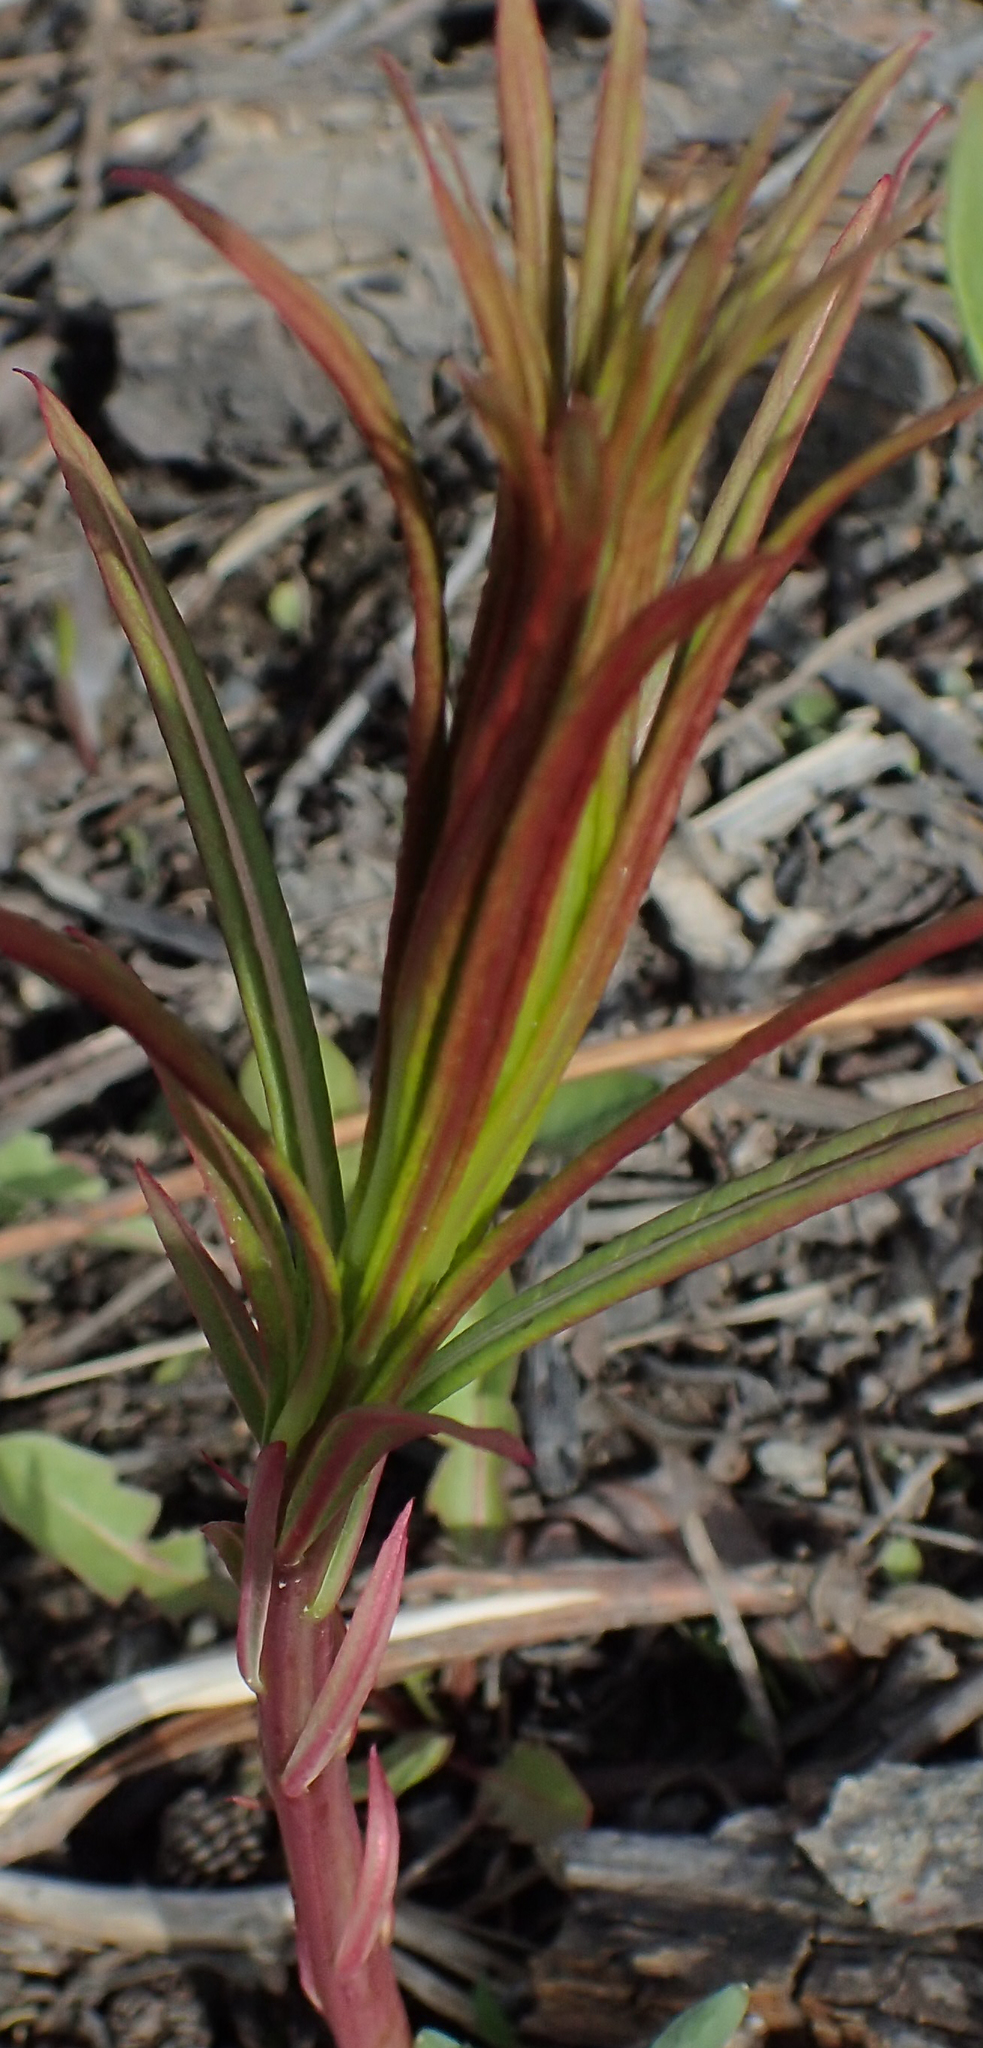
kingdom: Plantae
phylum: Tracheophyta
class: Magnoliopsida
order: Myrtales
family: Onagraceae
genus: Chamaenerion
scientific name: Chamaenerion angustifolium
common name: Fireweed
